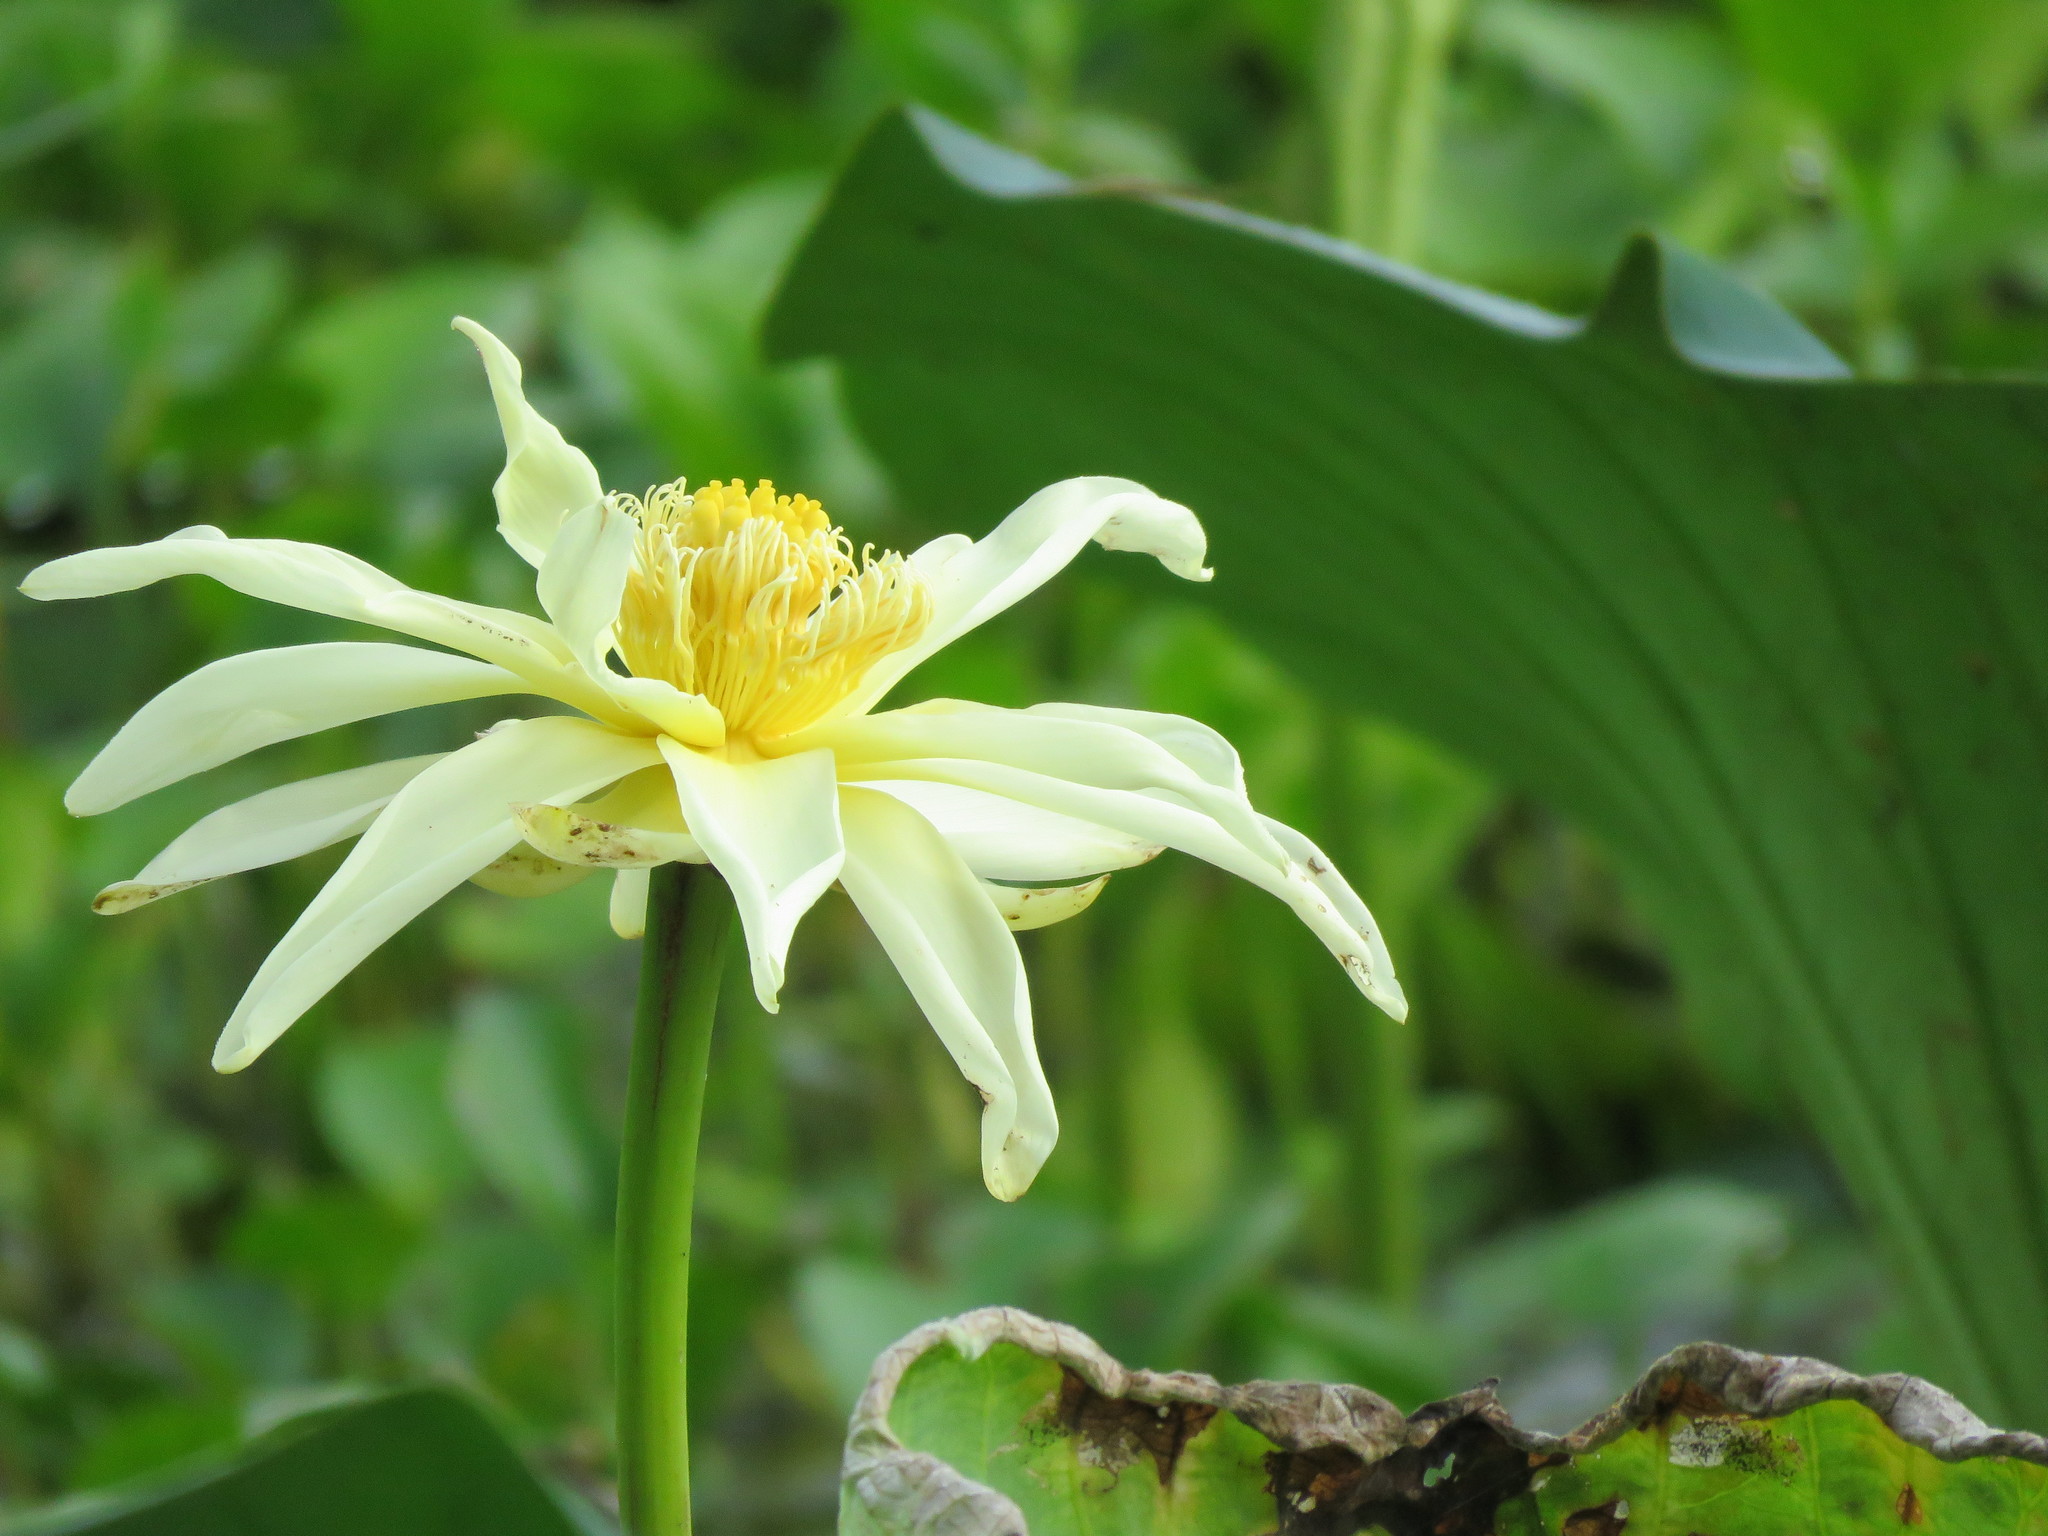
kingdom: Plantae
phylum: Tracheophyta
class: Magnoliopsida
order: Proteales
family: Nelumbonaceae
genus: Nelumbo
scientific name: Nelumbo lutea
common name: American lotus
